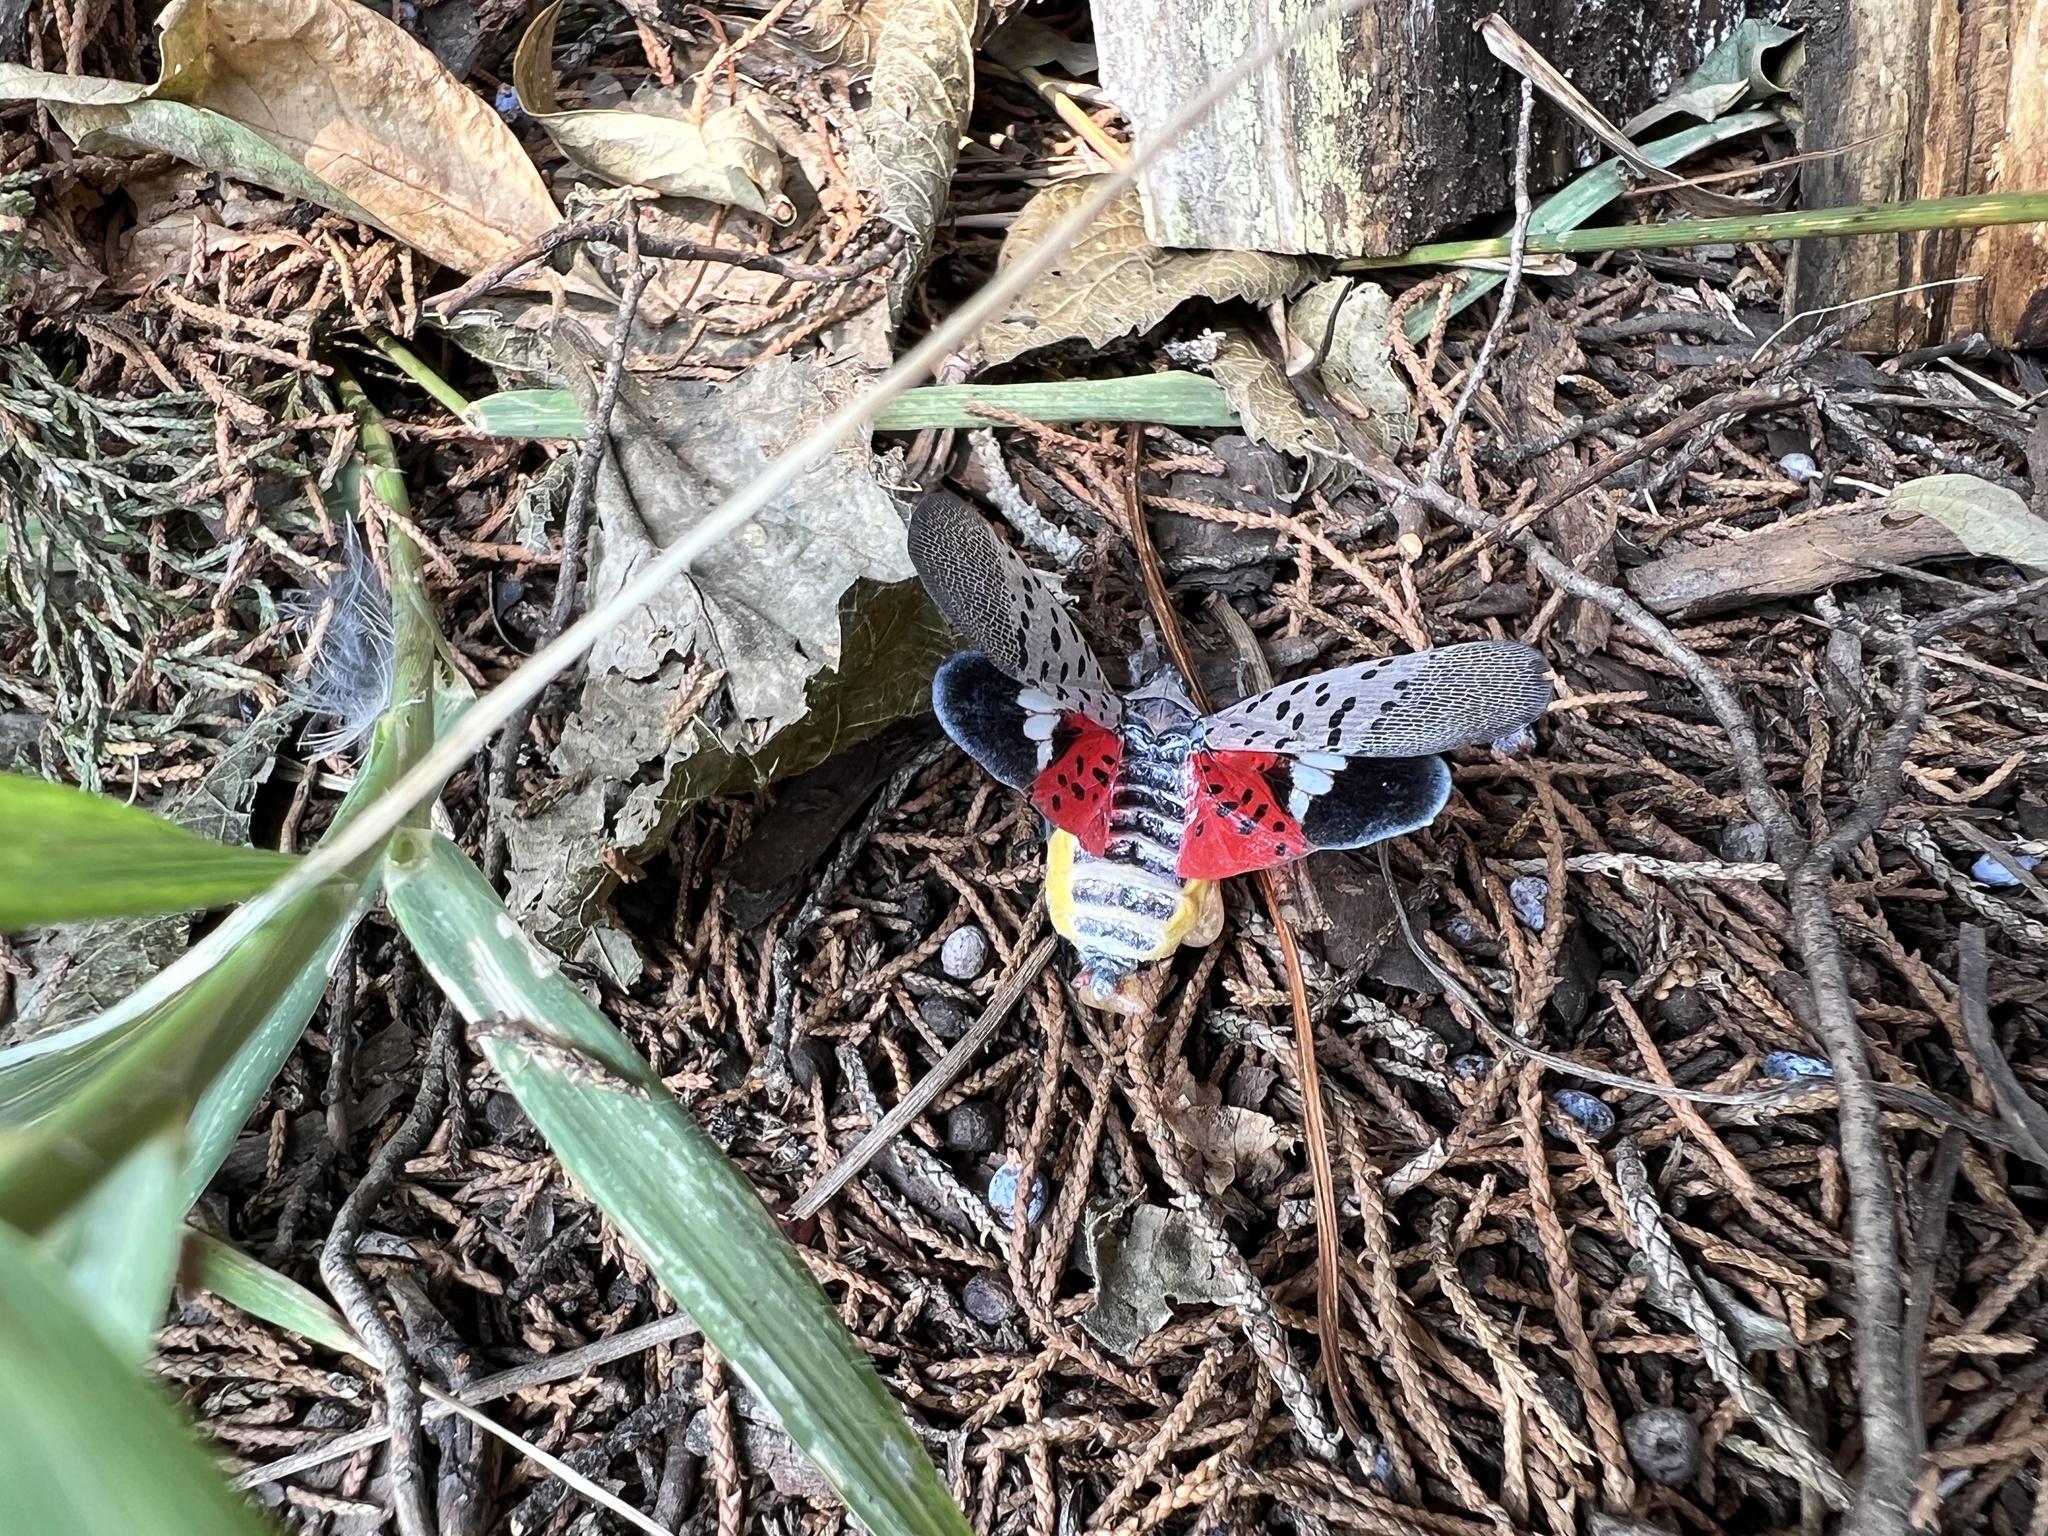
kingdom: Animalia
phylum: Arthropoda
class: Insecta
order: Hemiptera
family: Fulgoridae
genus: Lycorma
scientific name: Lycorma delicatula
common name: Spotted lanternfly
